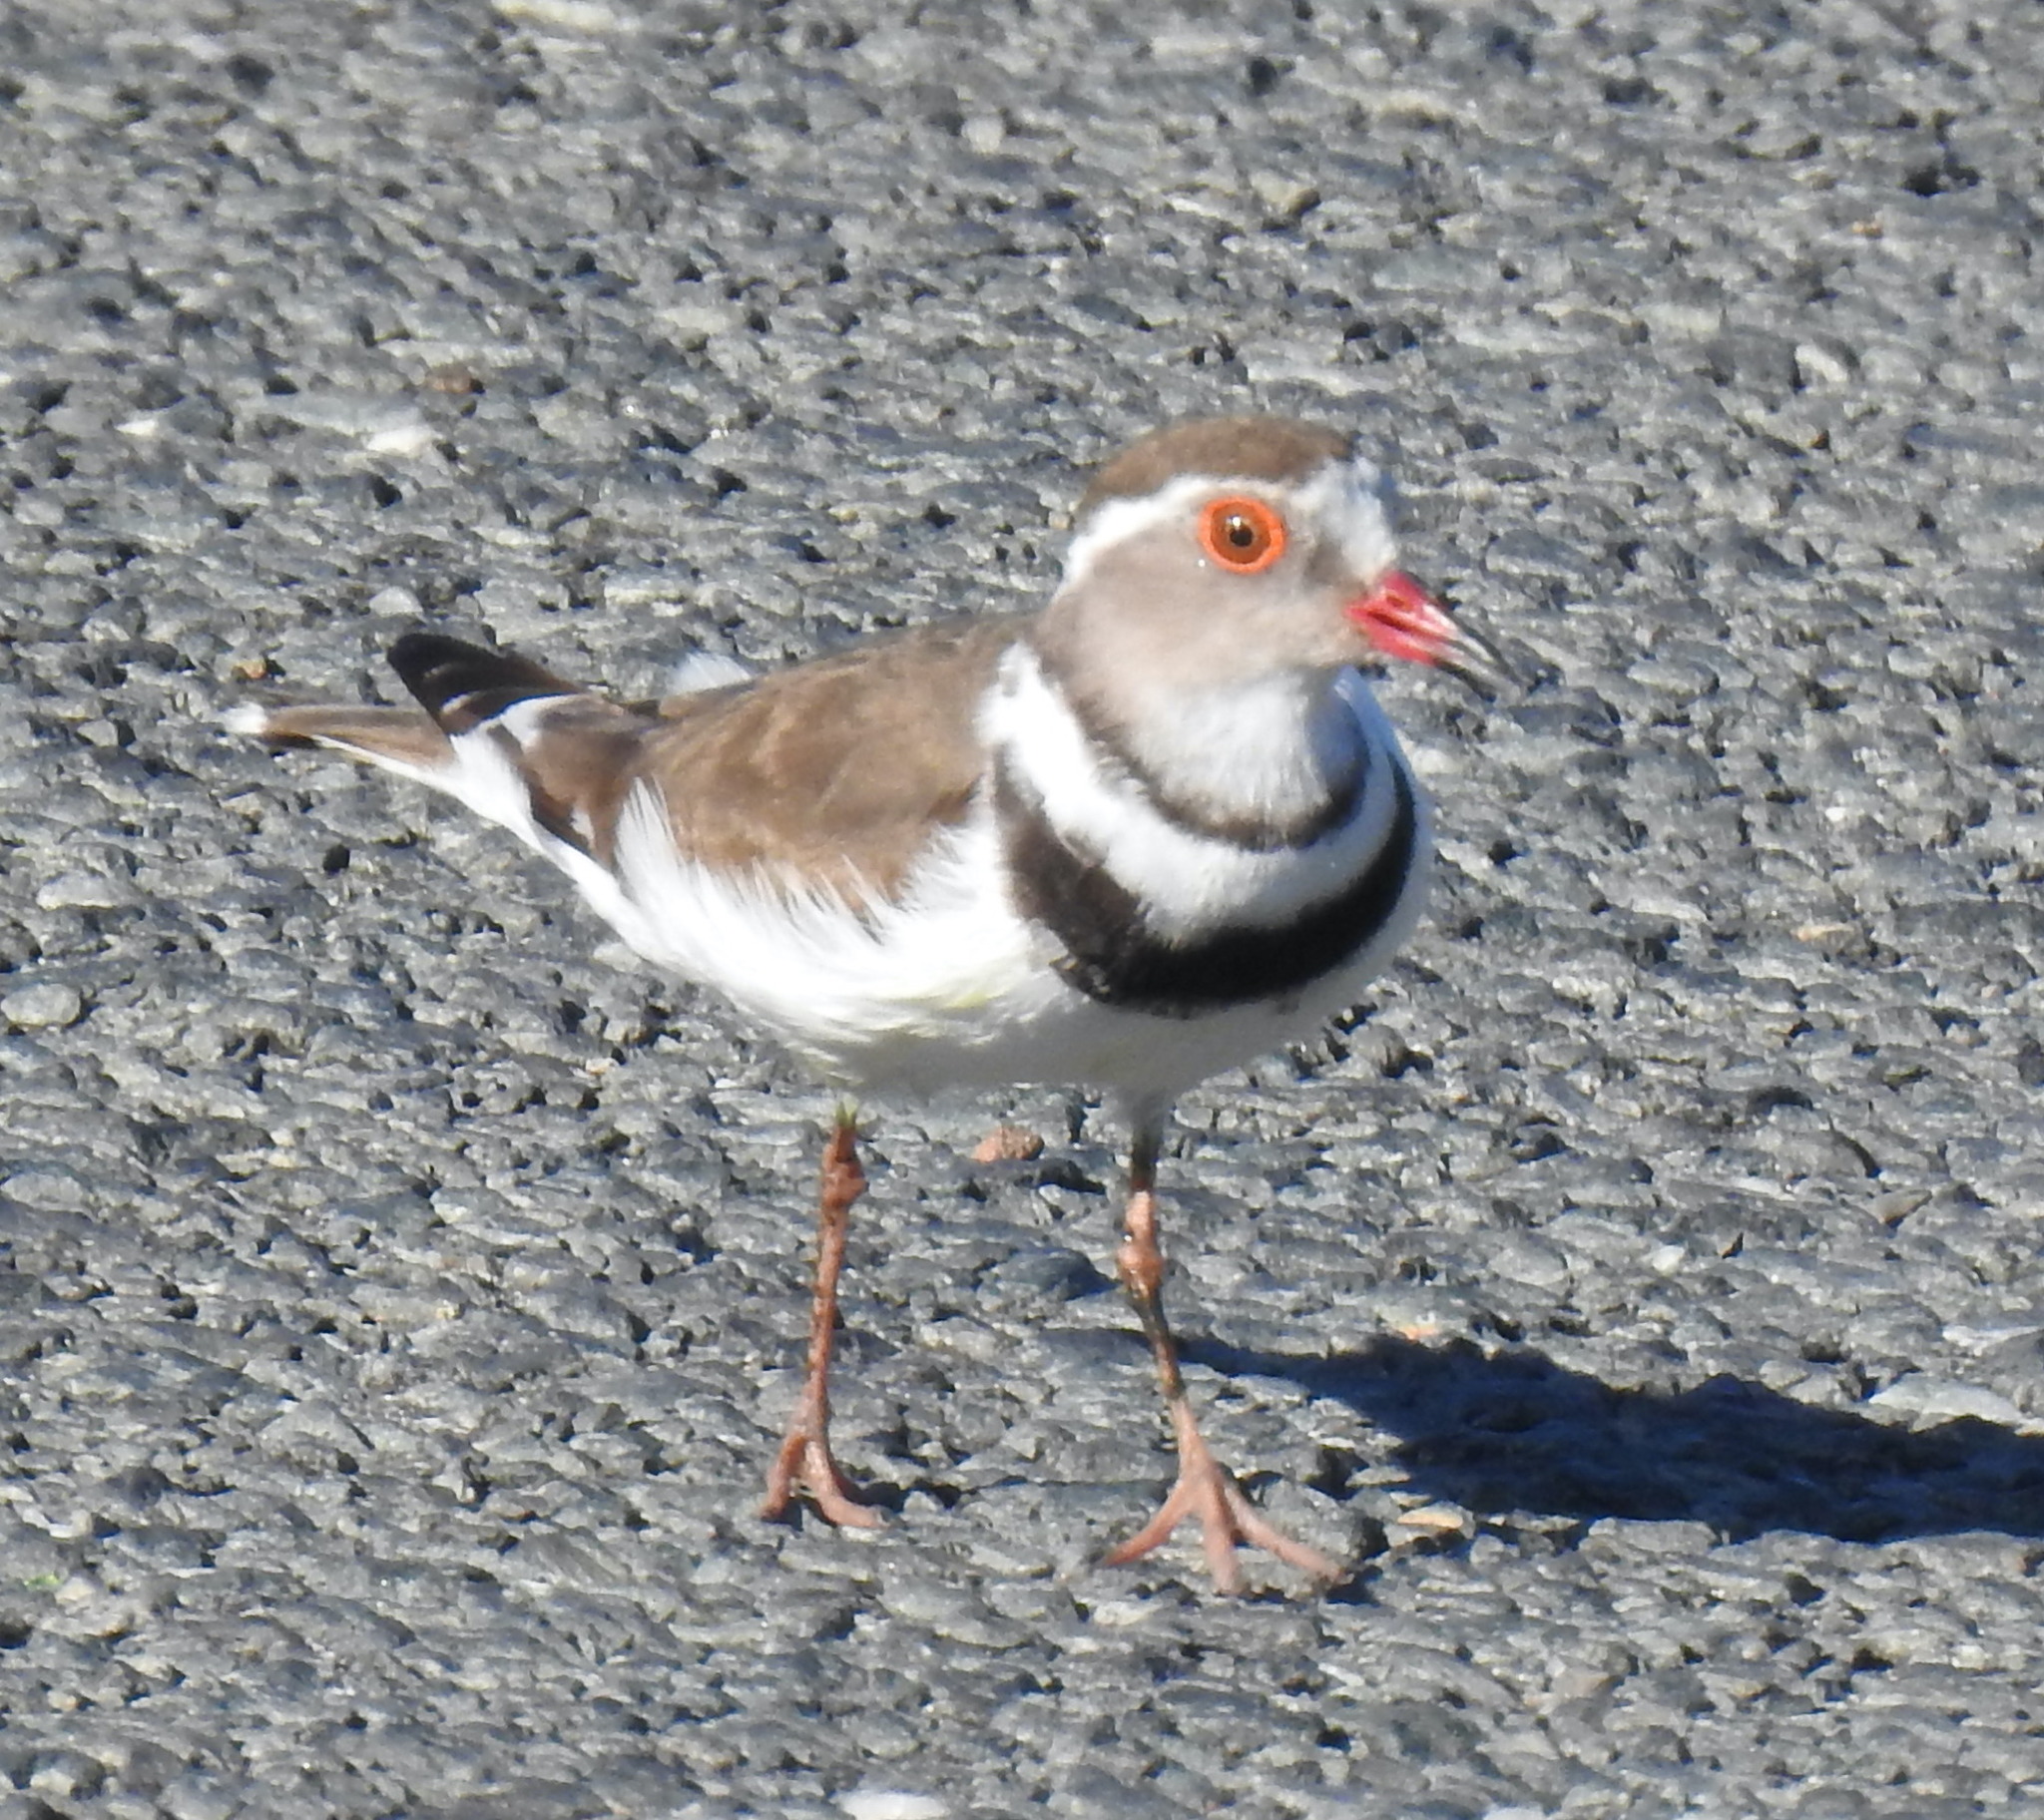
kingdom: Animalia
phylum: Chordata
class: Aves
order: Charadriiformes
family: Charadriidae
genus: Charadrius
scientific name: Charadrius tricollaris
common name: Three-banded plover
